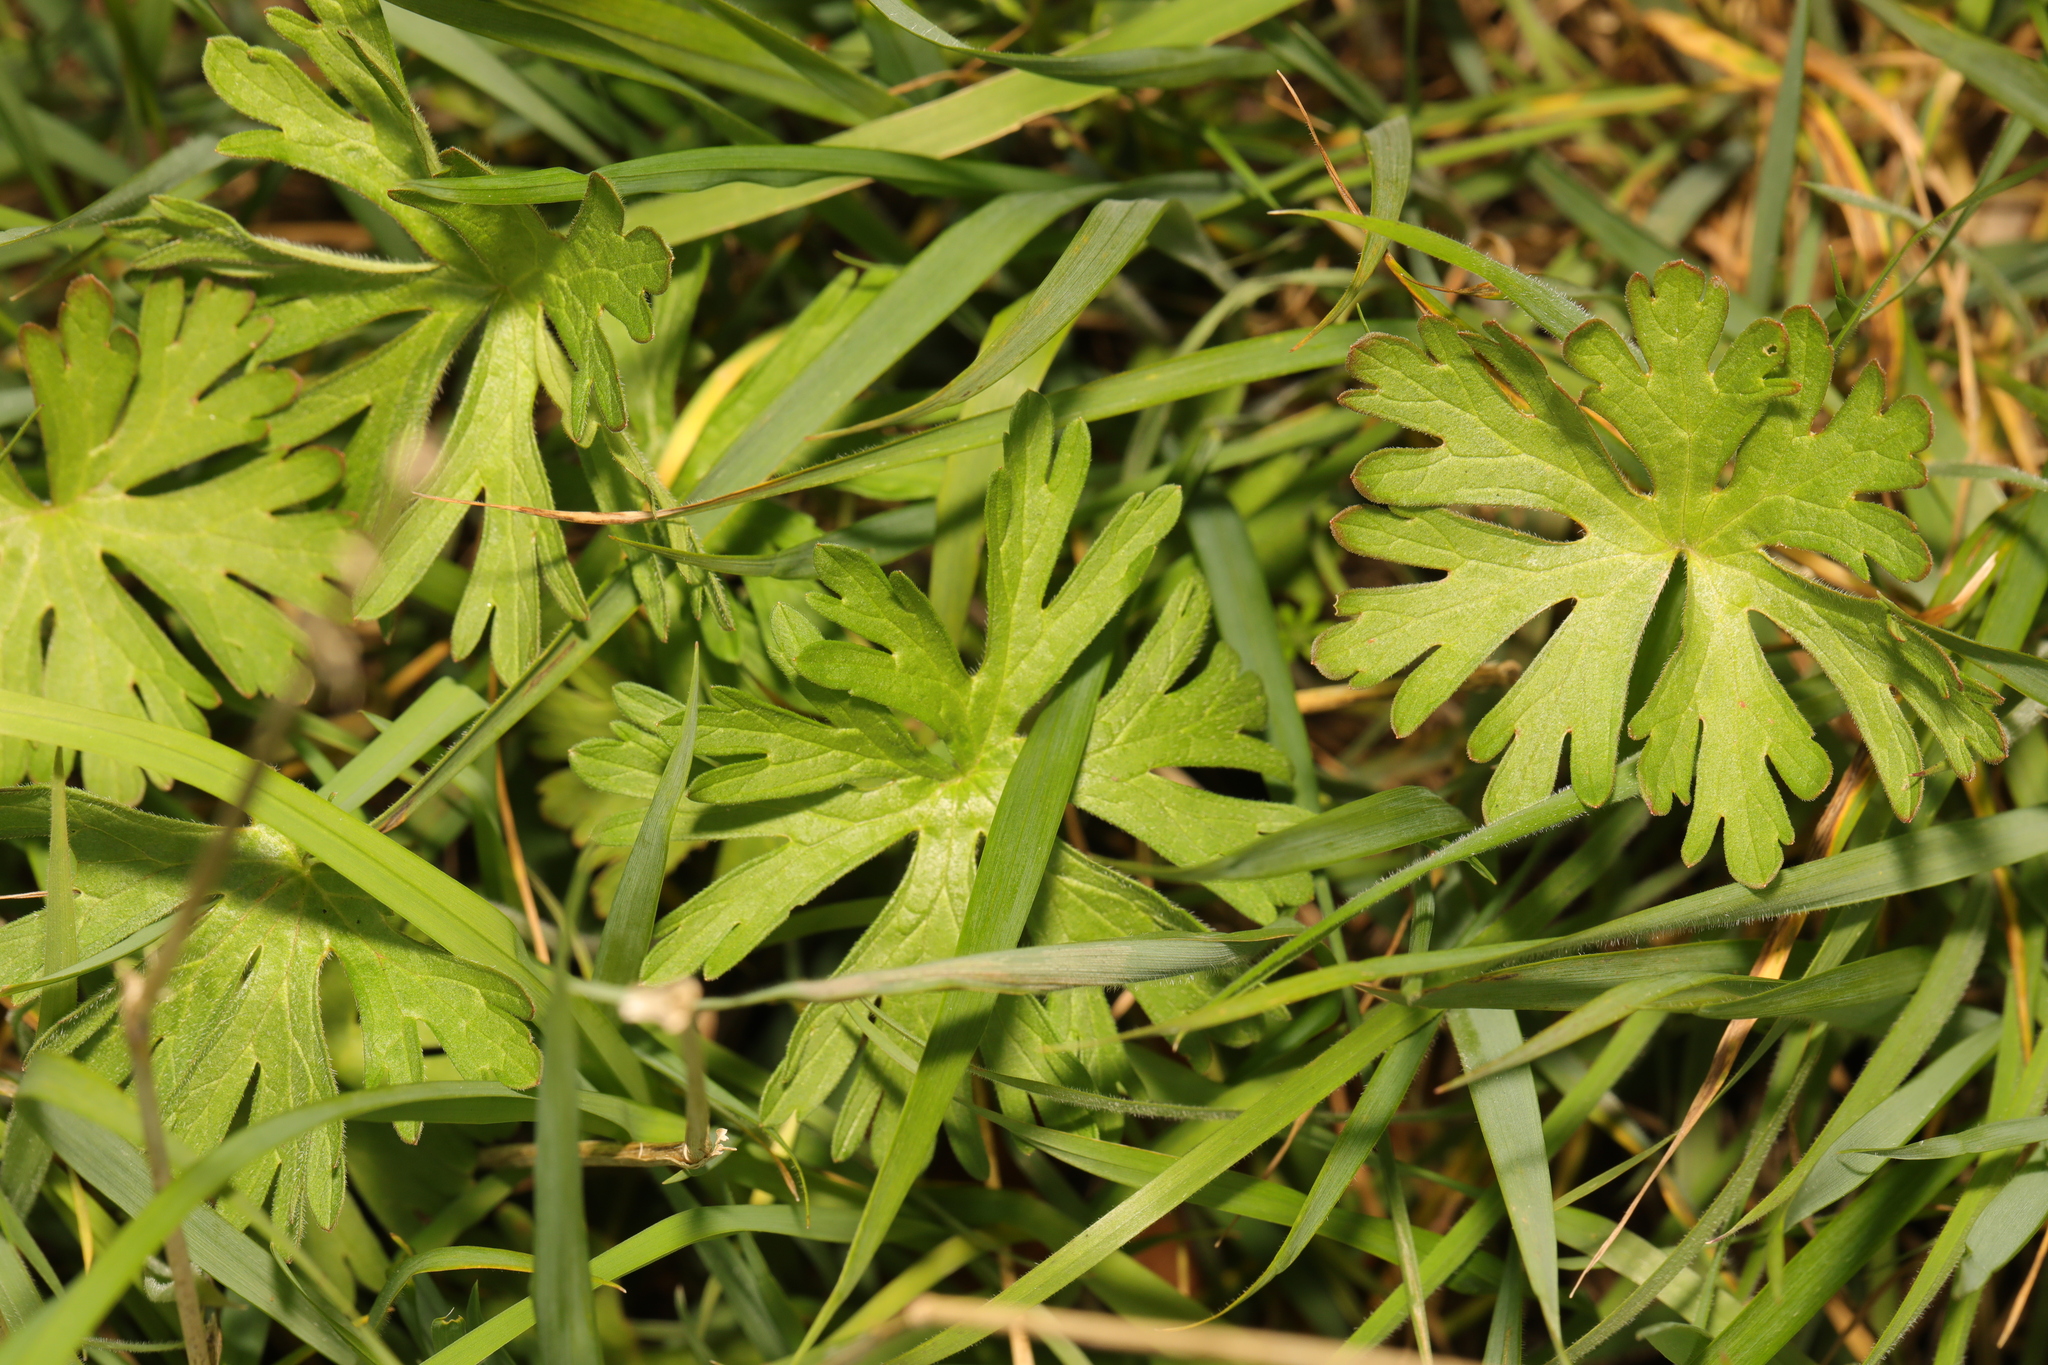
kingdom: Plantae
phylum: Tracheophyta
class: Magnoliopsida
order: Geraniales
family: Geraniaceae
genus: Geranium
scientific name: Geranium dissectum
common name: Cut-leaved crane's-bill
